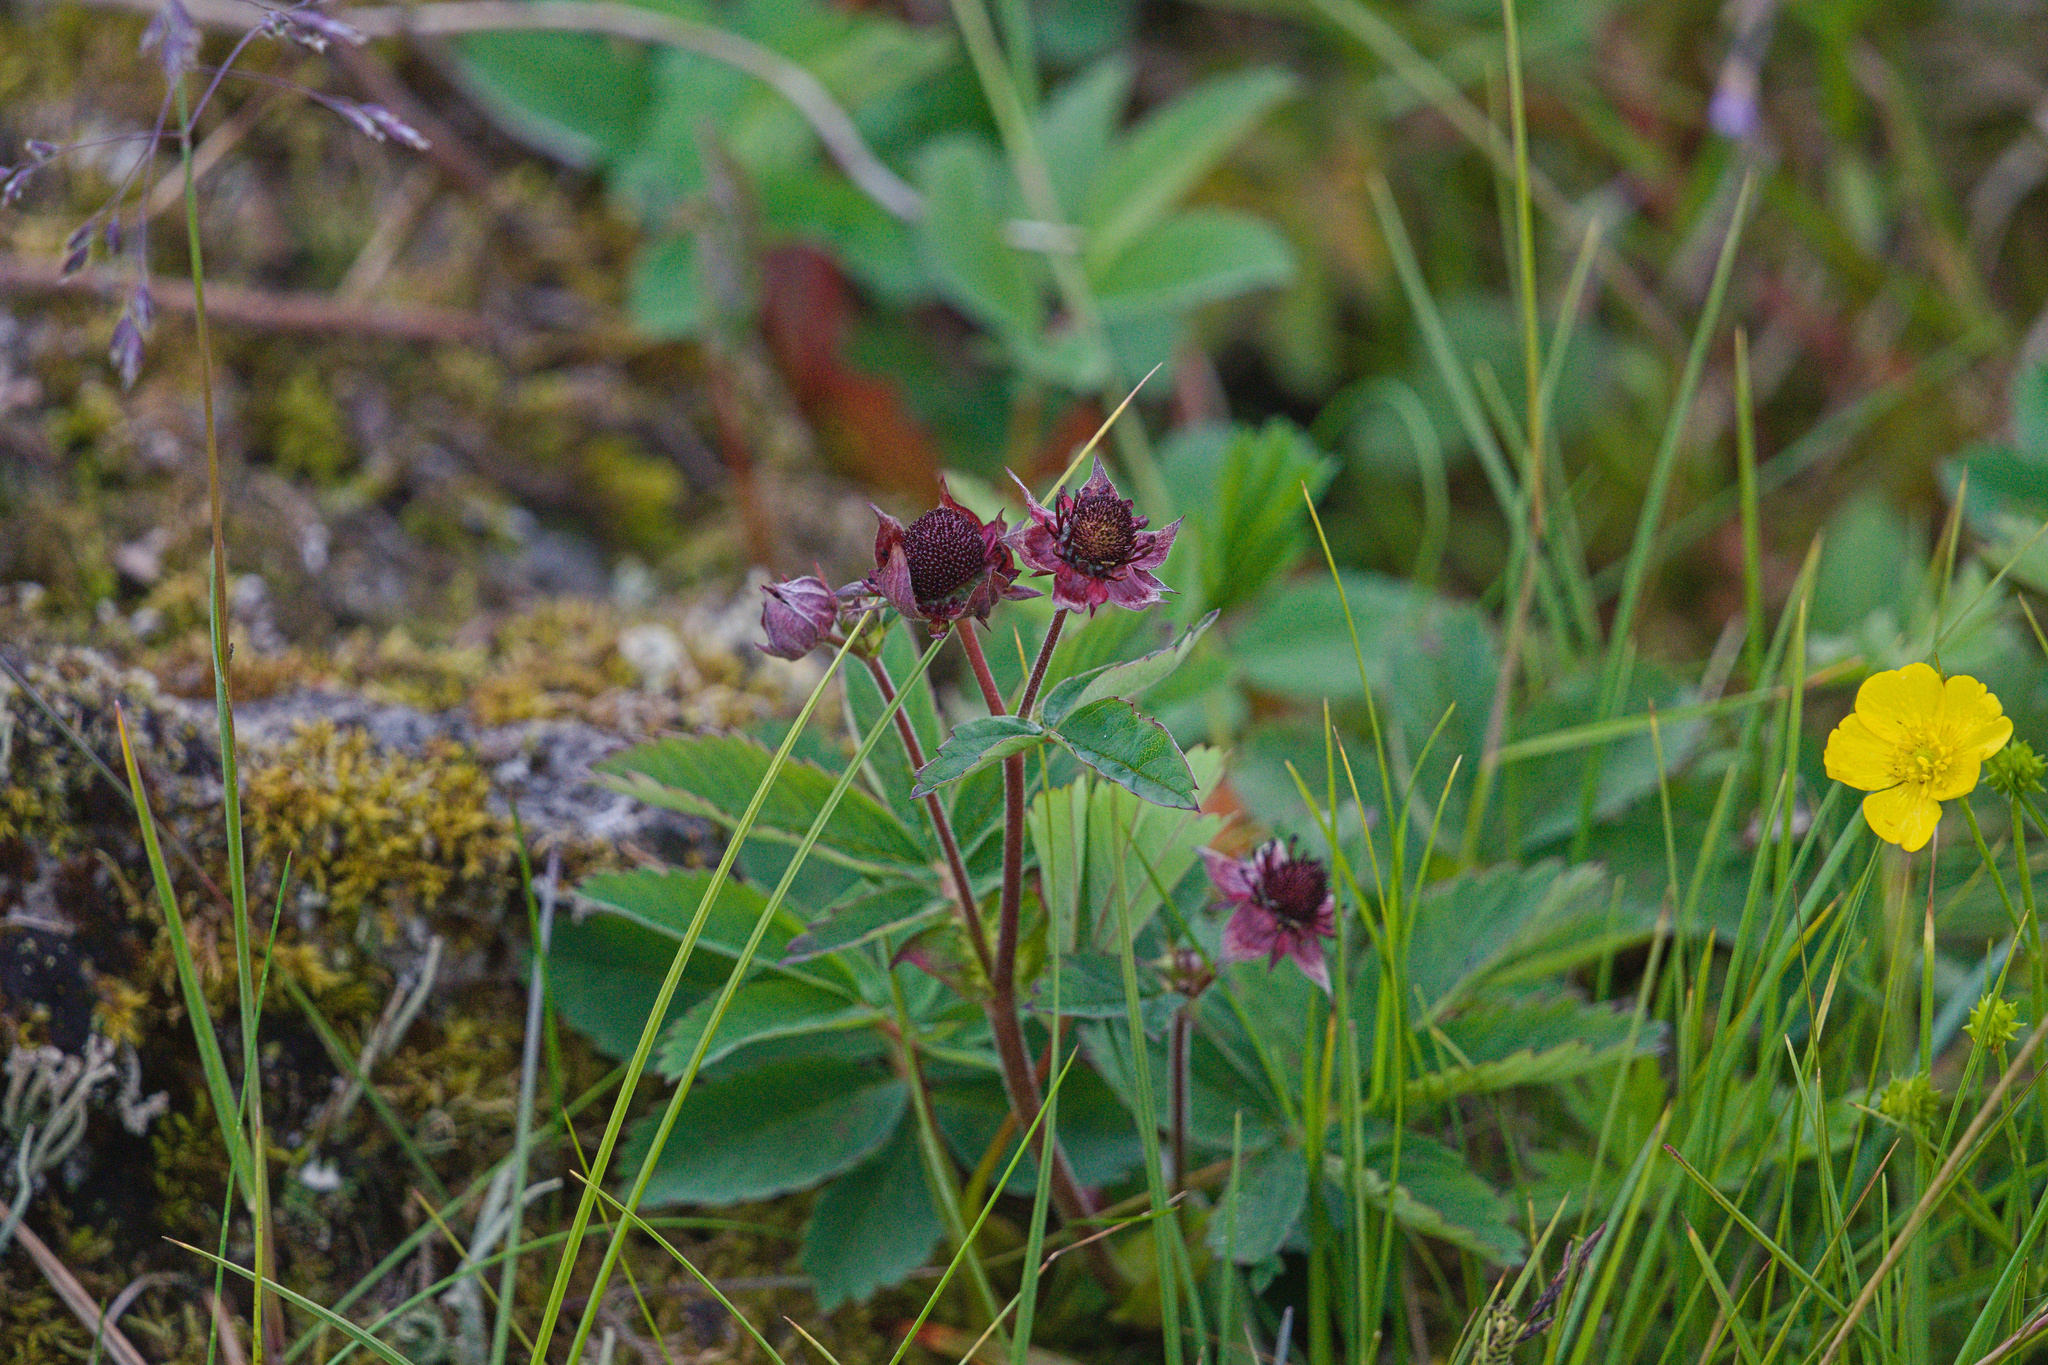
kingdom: Plantae
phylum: Tracheophyta
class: Magnoliopsida
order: Rosales
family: Rosaceae
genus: Comarum
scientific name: Comarum palustre
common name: Marsh cinquefoil
